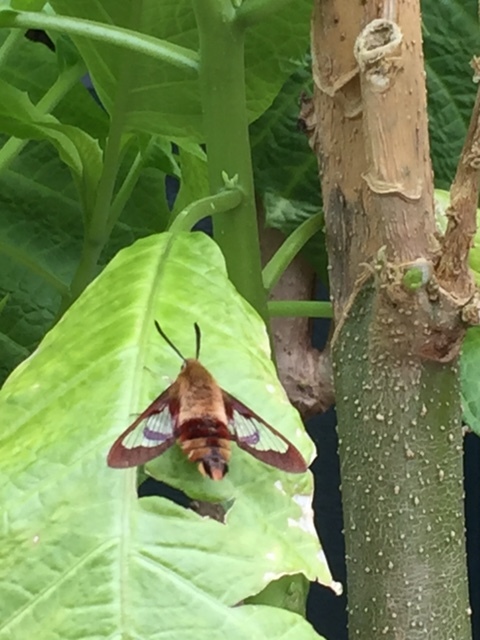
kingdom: Animalia
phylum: Arthropoda
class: Insecta
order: Lepidoptera
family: Sphingidae
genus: Hemaris
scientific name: Hemaris thysbe
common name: Common clear-wing
